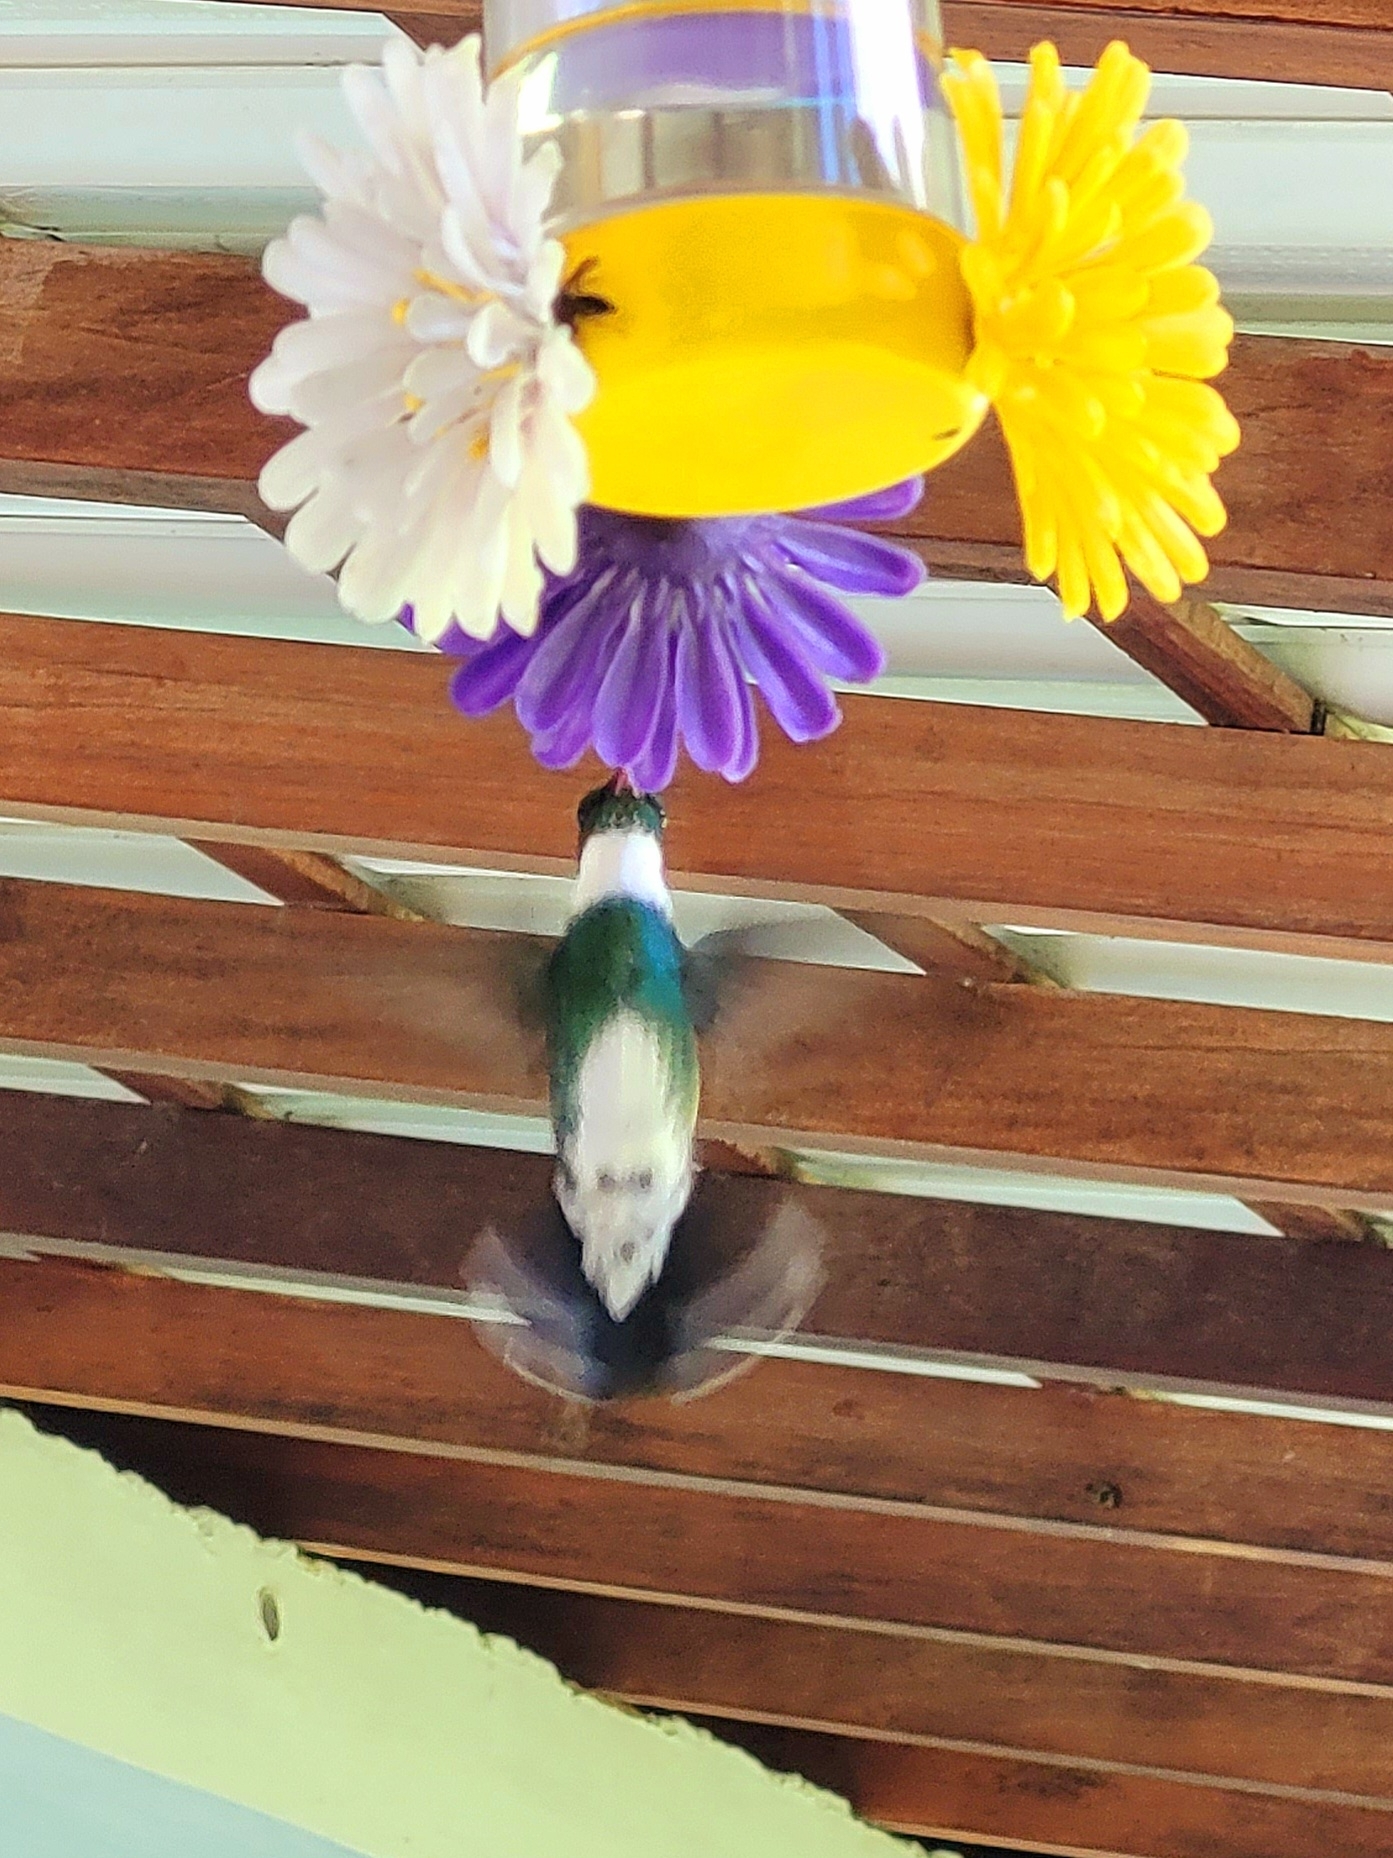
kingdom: Animalia
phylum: Chordata
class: Aves
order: Apodiformes
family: Trochilidae
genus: Leucochloris
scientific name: Leucochloris albicollis
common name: White-throated hummingbird
